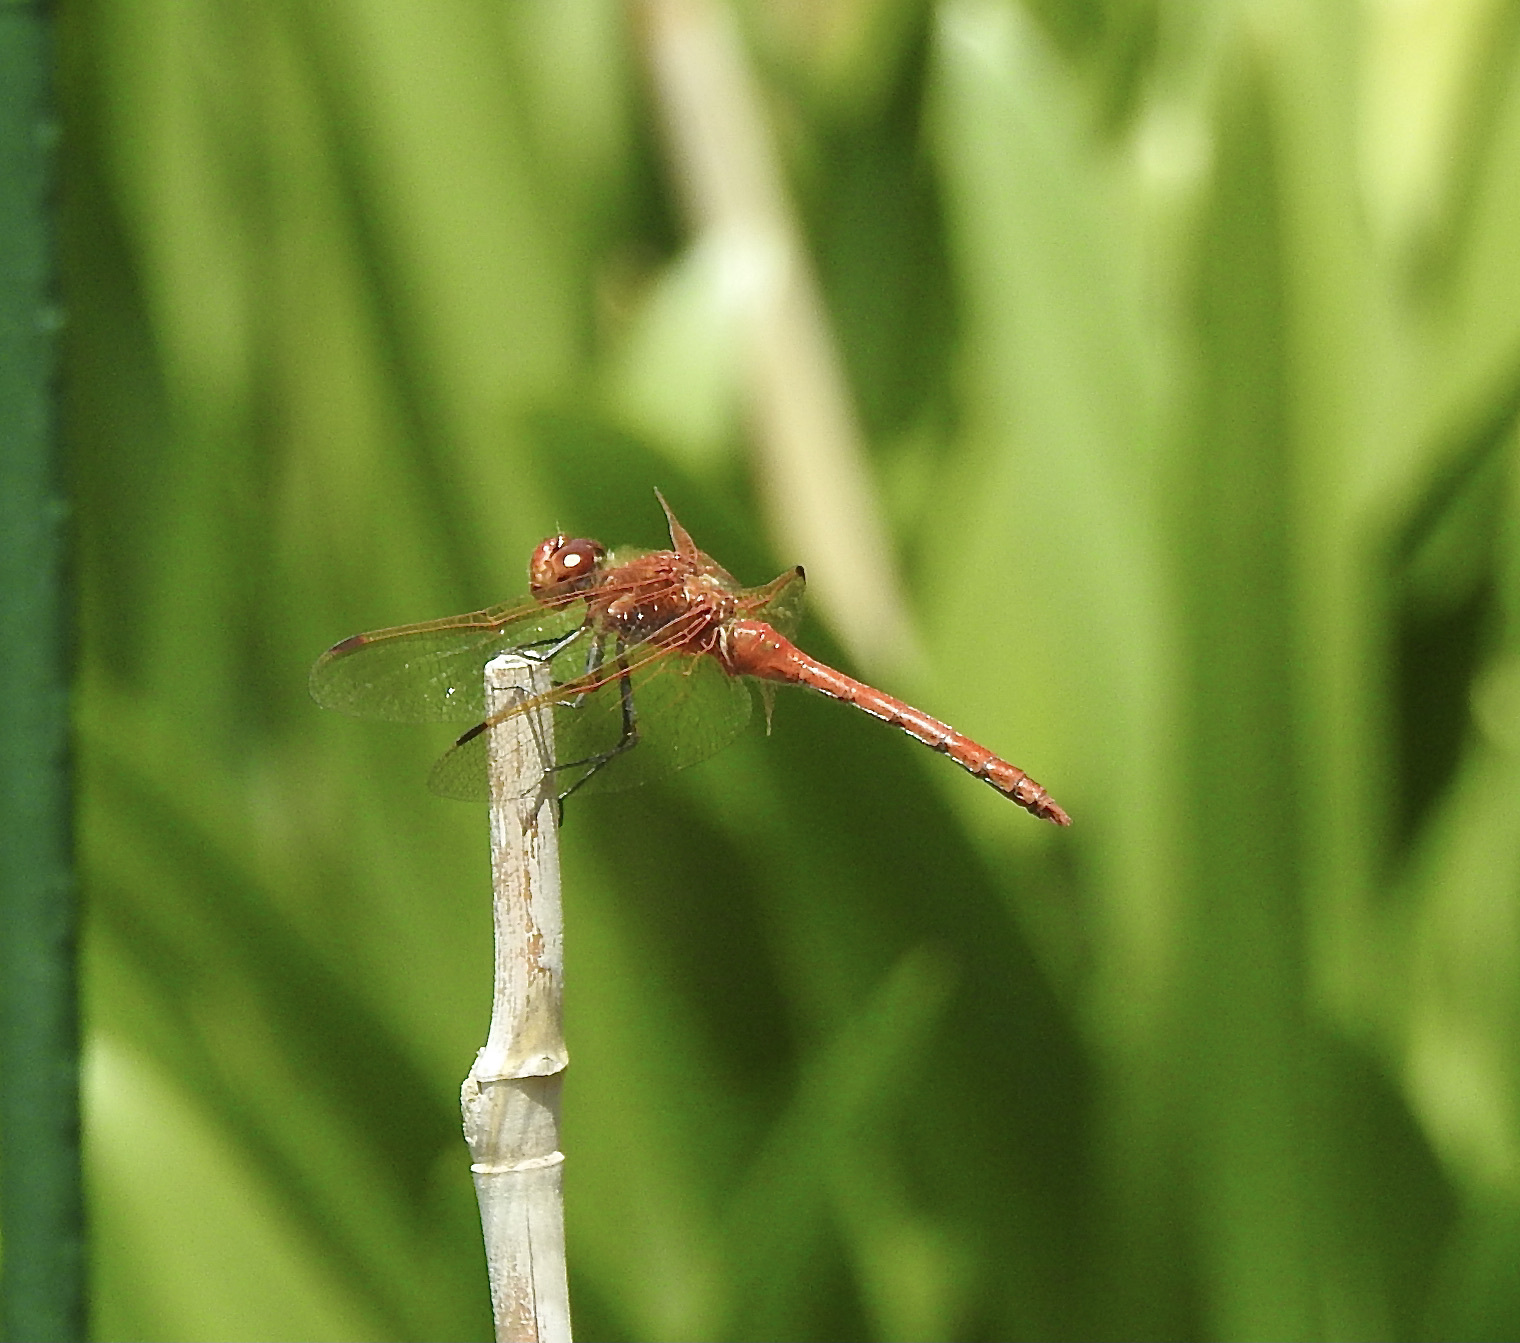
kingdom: Animalia
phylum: Arthropoda
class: Insecta
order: Odonata
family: Libellulidae
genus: Sympetrum
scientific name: Sympetrum madidum
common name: Red-veined meadowhawk
